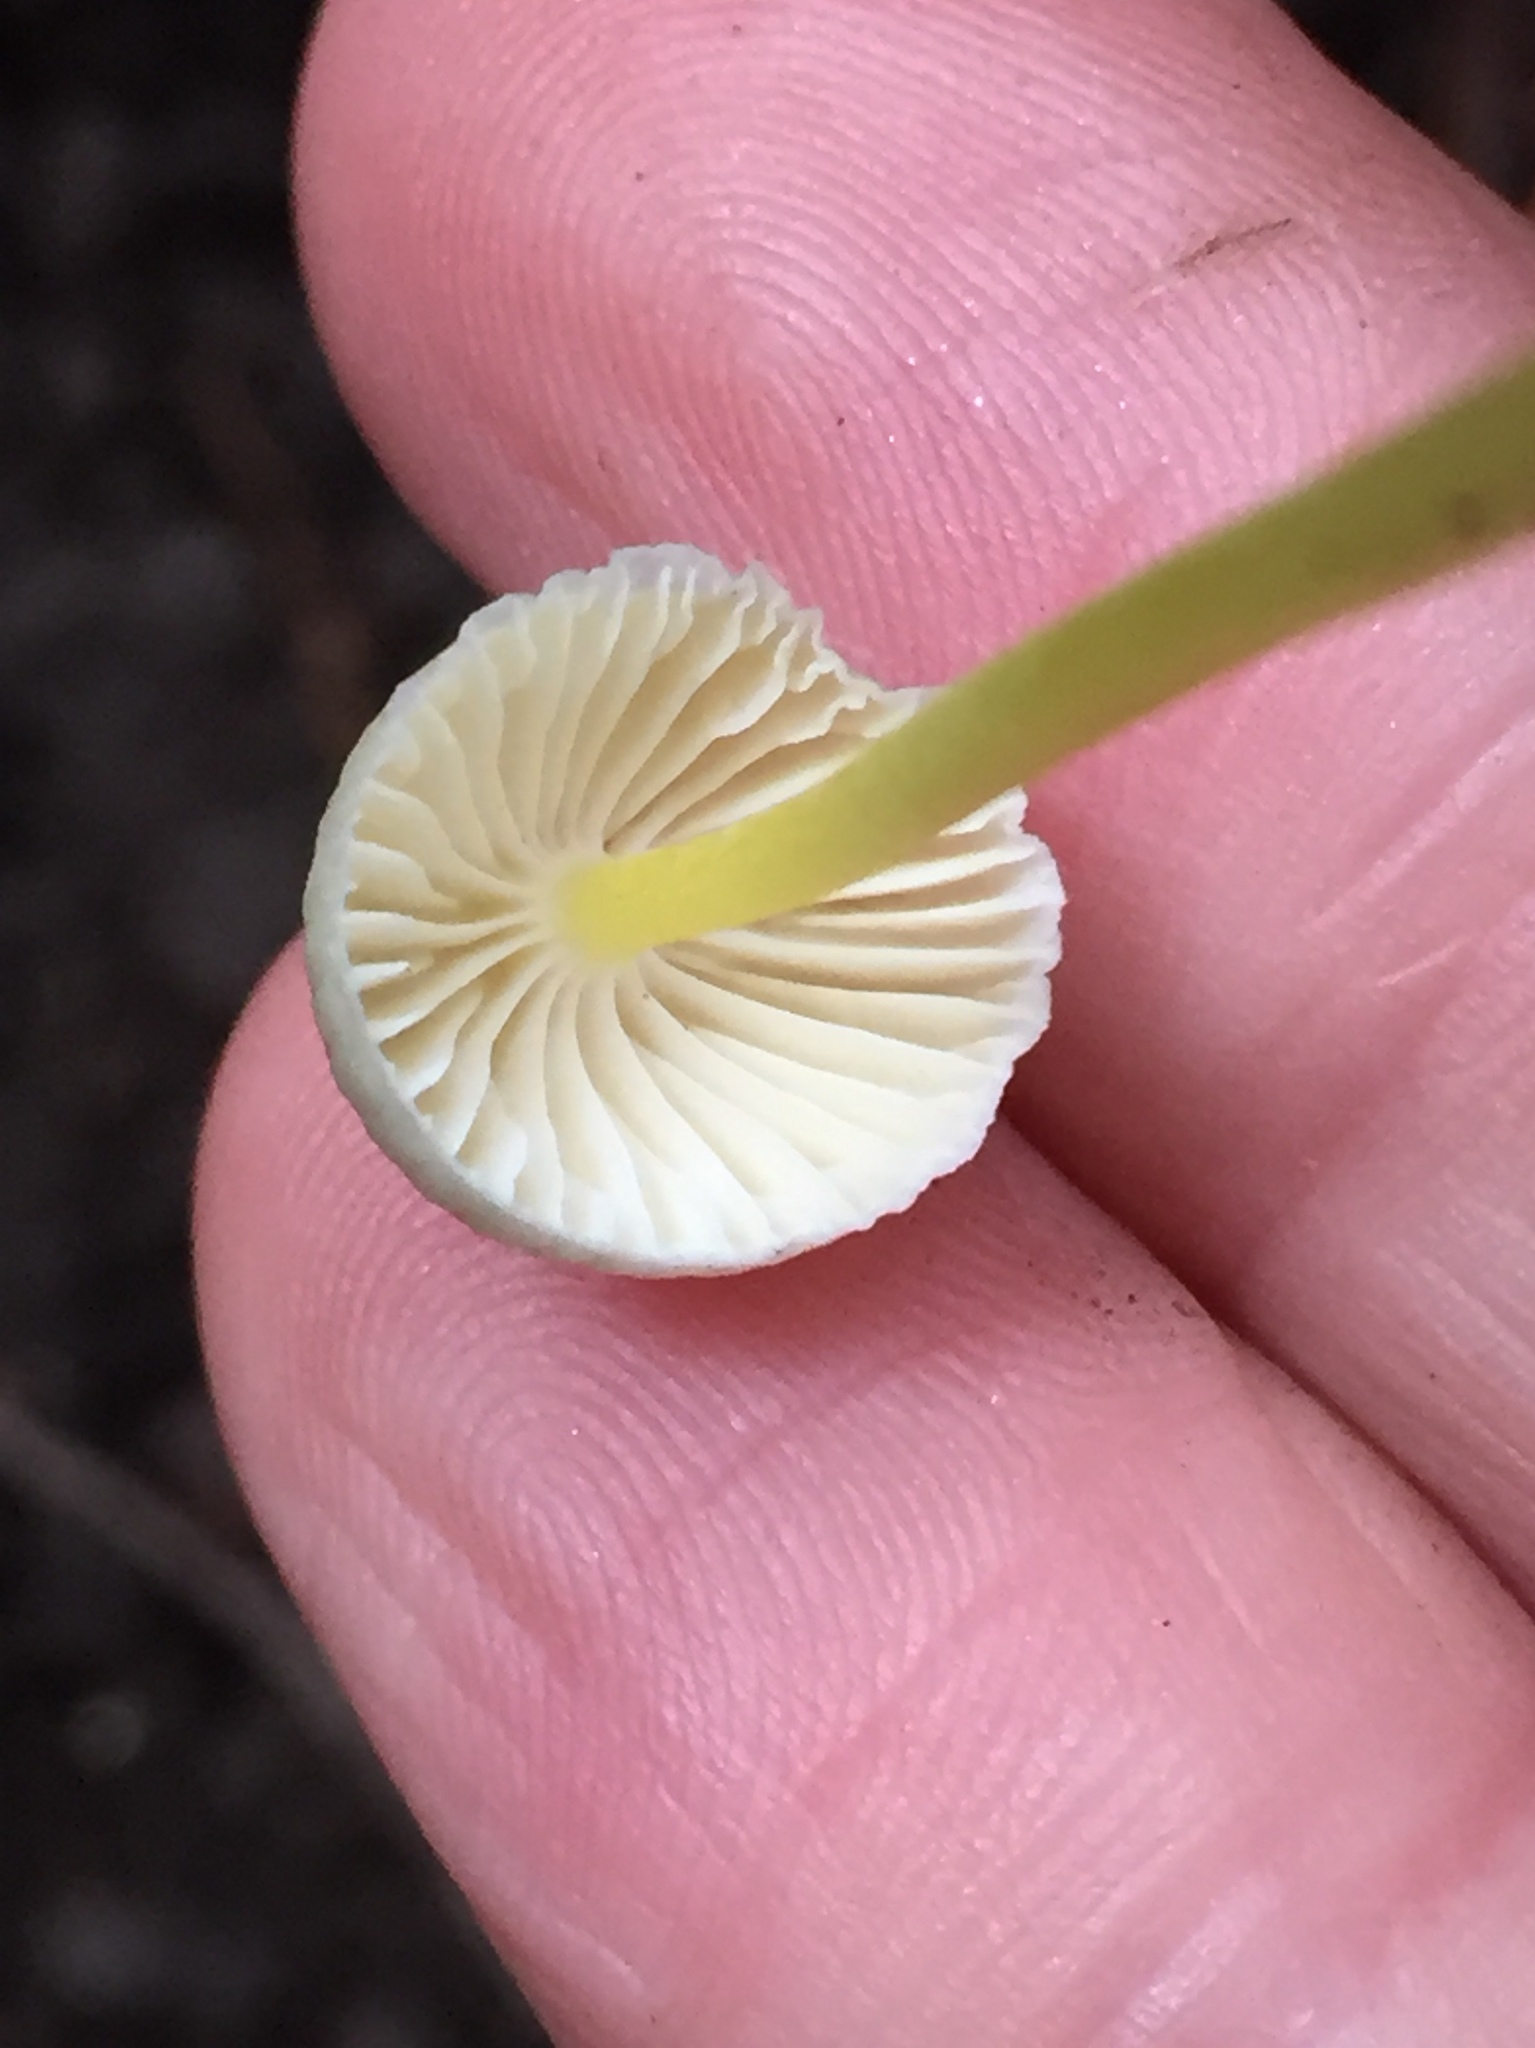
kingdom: Fungi
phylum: Basidiomycota
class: Agaricomycetes
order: Agaricales
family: Mycenaceae
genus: Mycena
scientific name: Mycena epipterygia
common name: Yellowleg bonnet
